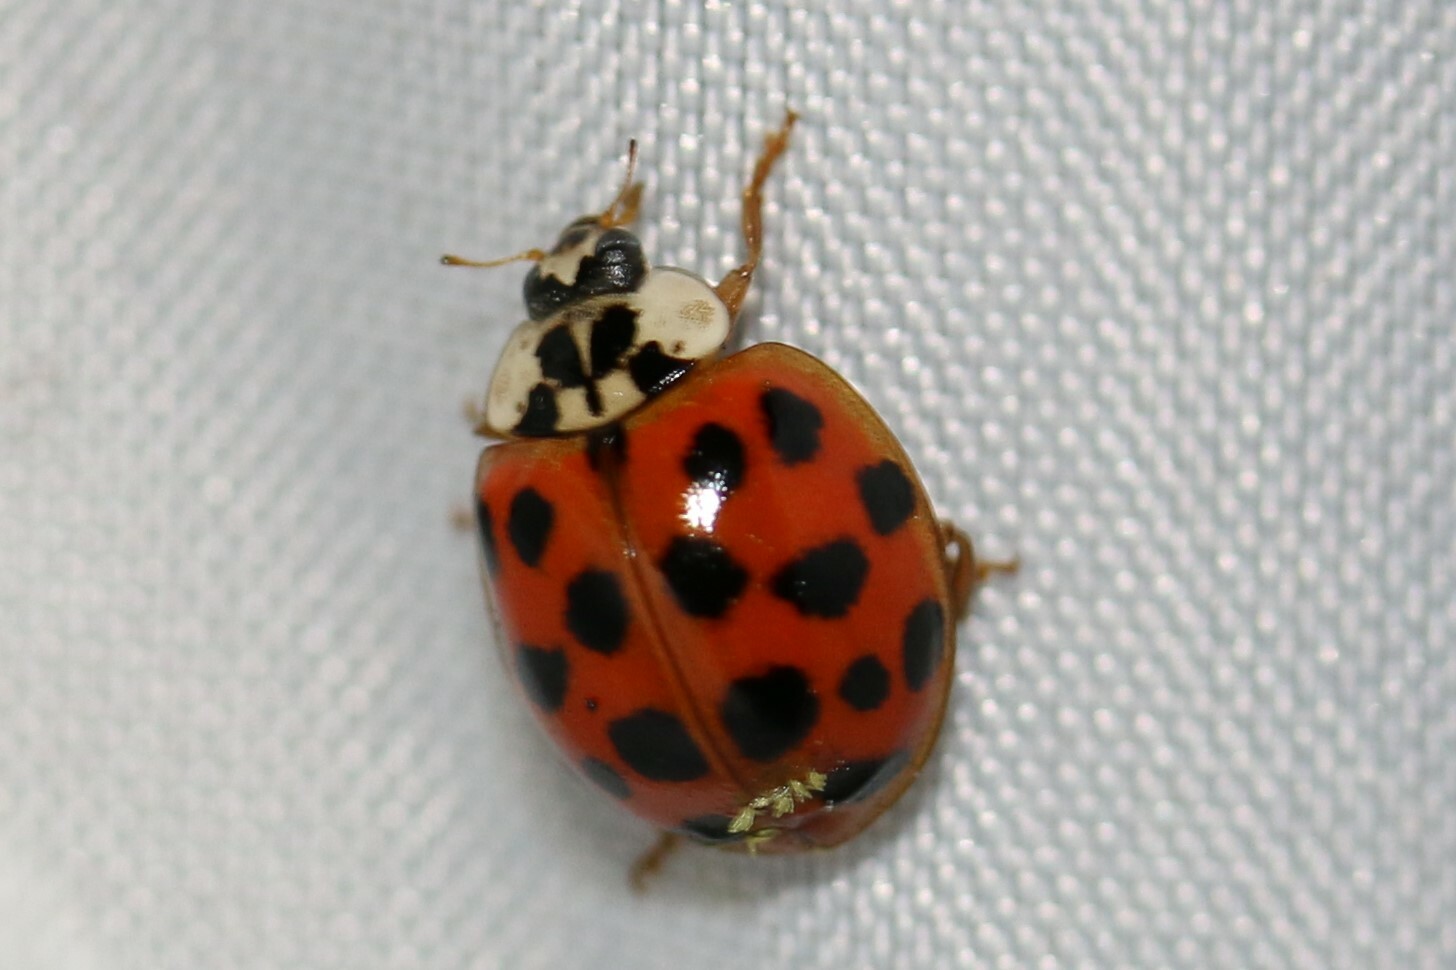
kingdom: Animalia
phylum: Arthropoda
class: Insecta
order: Coleoptera
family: Coccinellidae
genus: Harmonia
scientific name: Harmonia axyridis
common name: Harlequin ladybird
